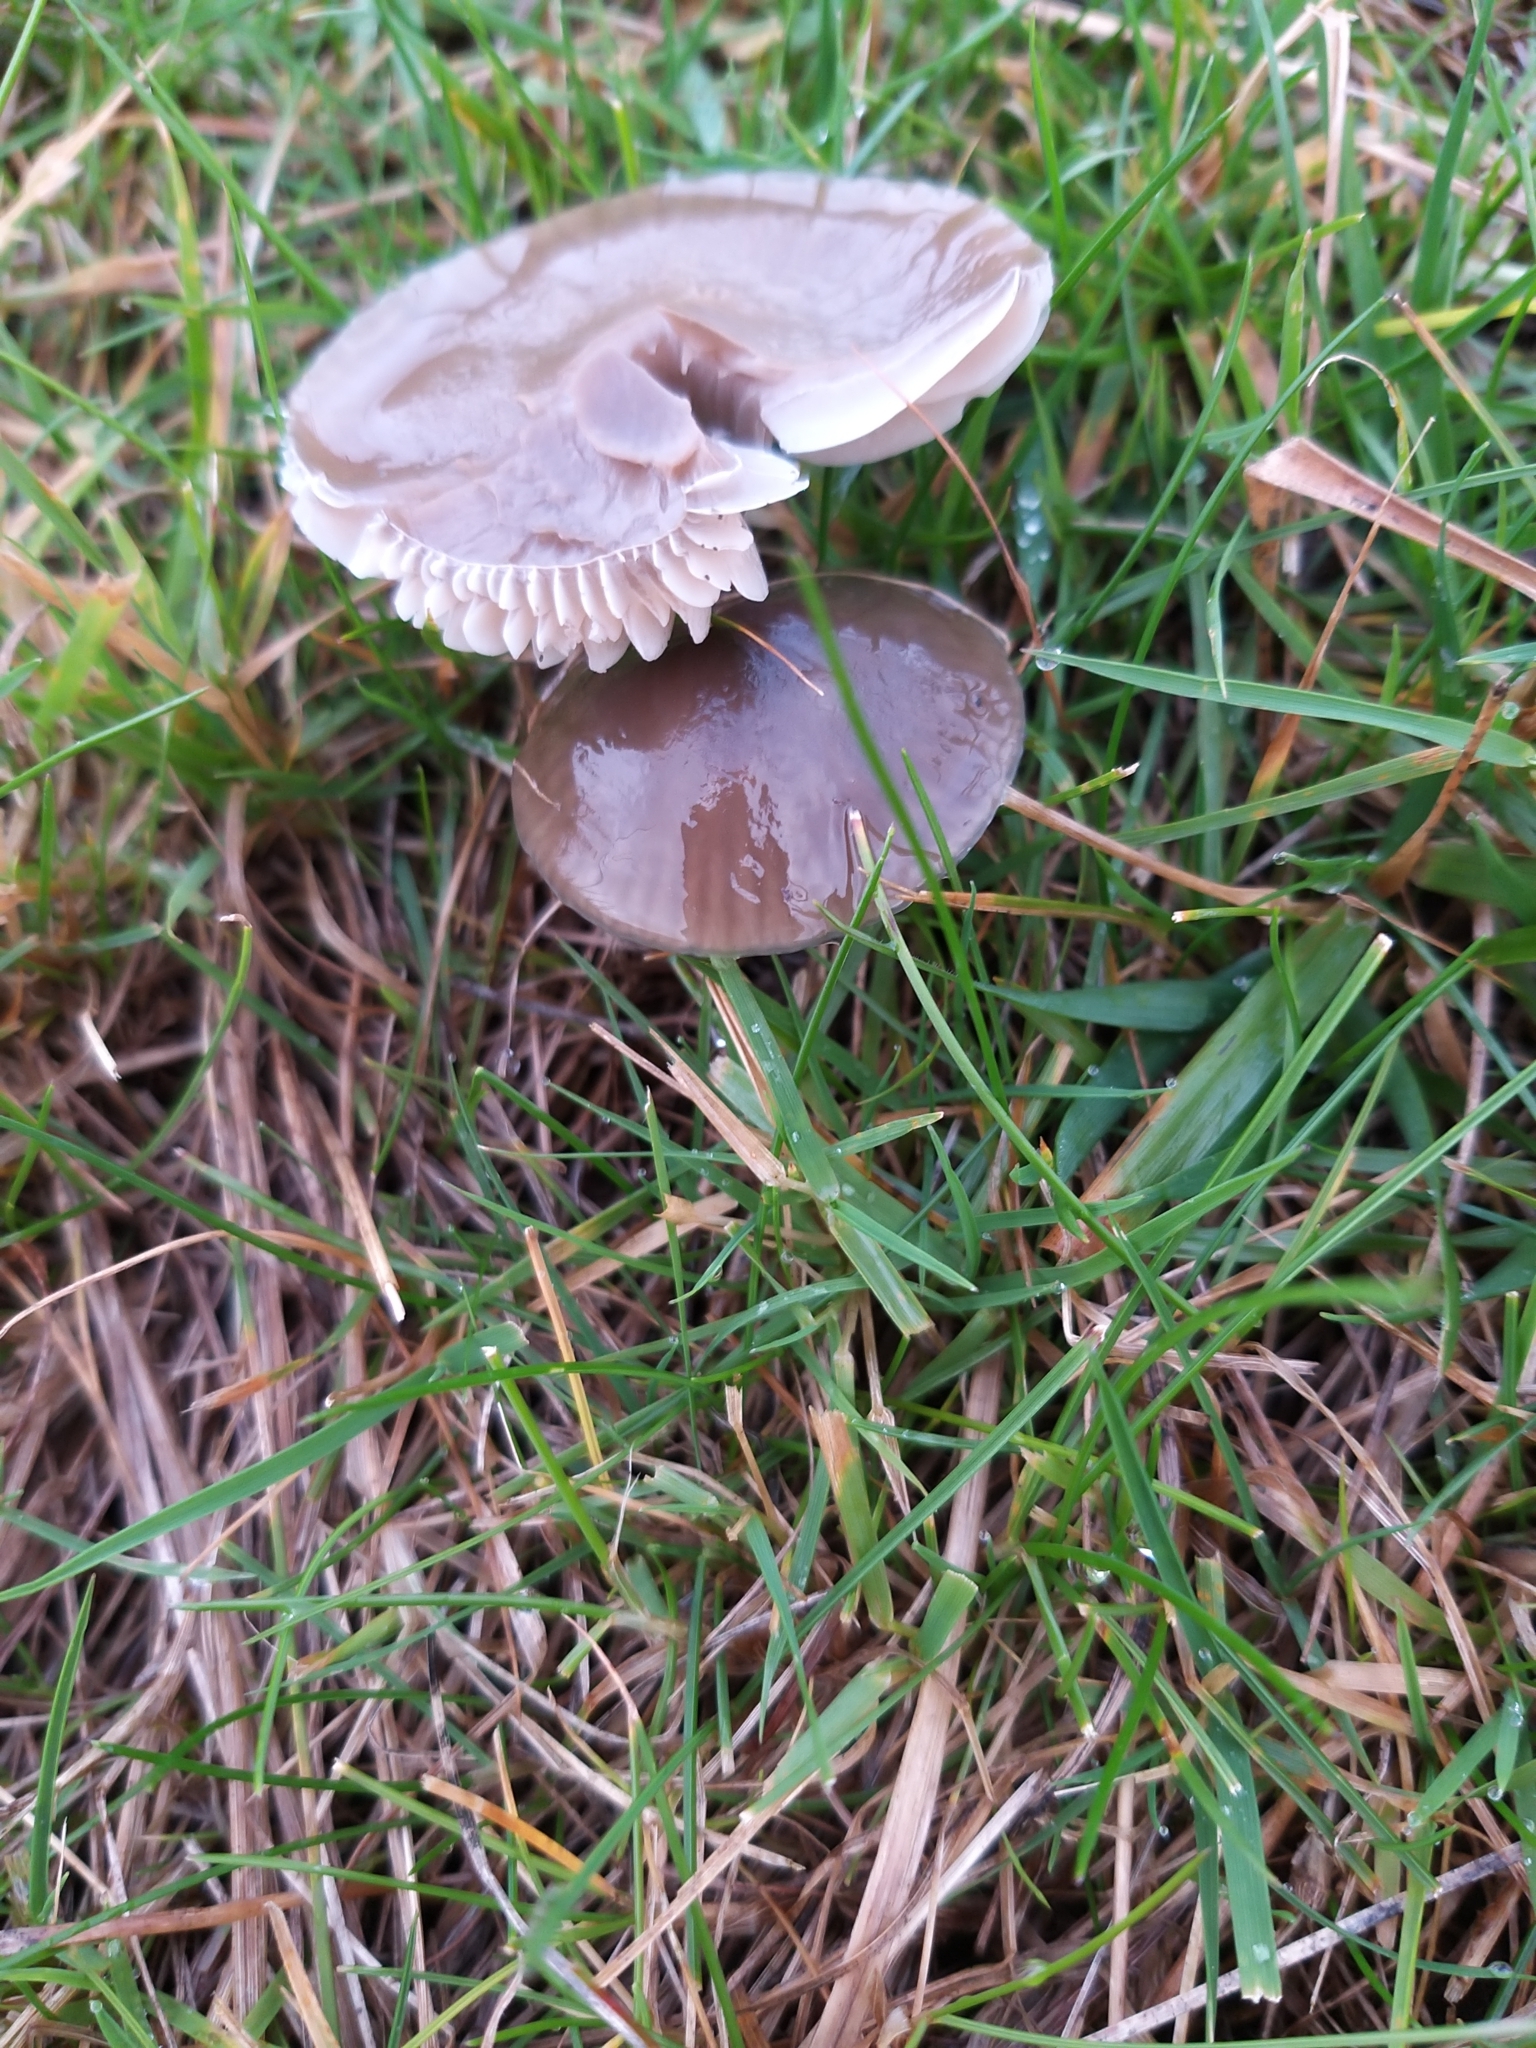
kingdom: Fungi
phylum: Basidiomycota
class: Agaricomycetes
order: Agaricales
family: Hygrophoraceae
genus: Gliophorus
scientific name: Gliophorus irrigatus
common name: Slimy waxcap
